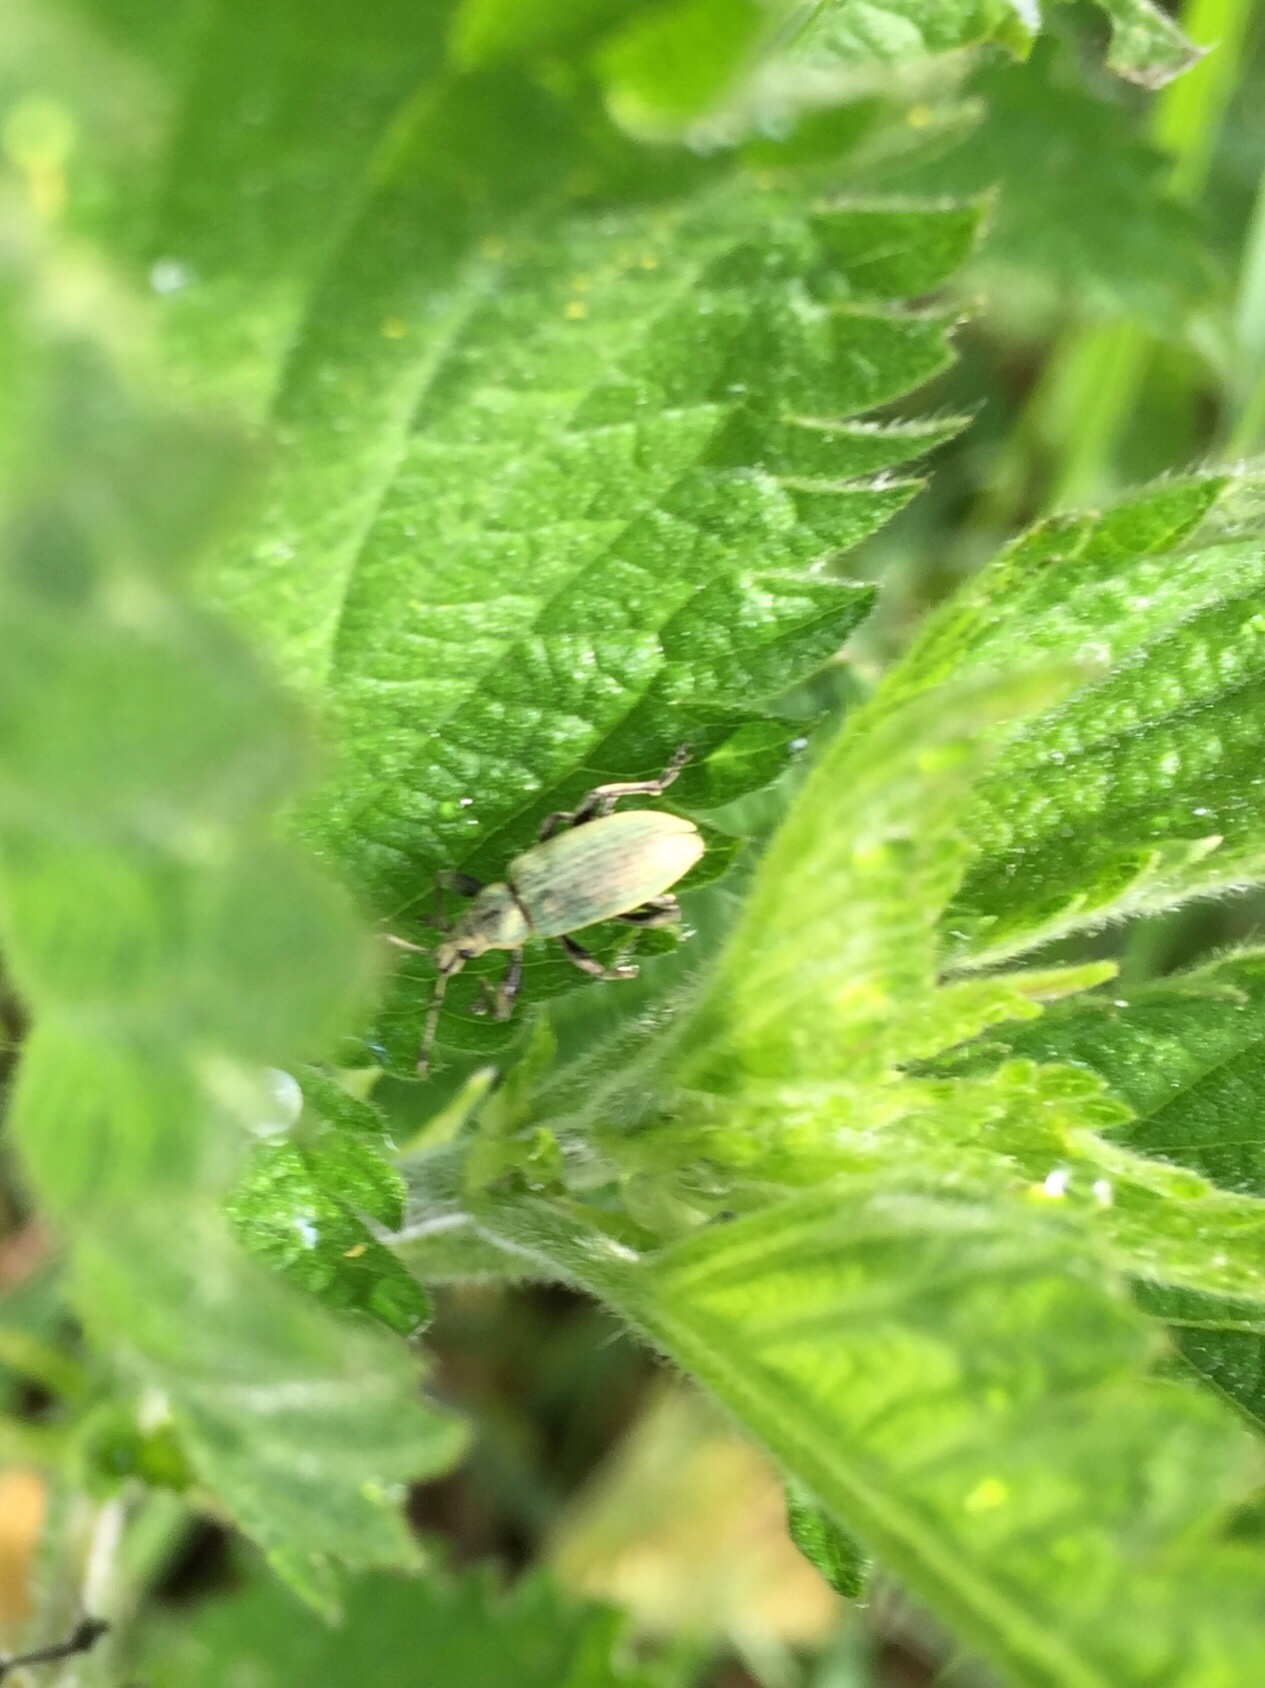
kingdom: Animalia
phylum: Arthropoda
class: Insecta
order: Coleoptera
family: Curculionidae
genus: Phyllobius
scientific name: Phyllobius pomaceus
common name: Green nettle weevil
